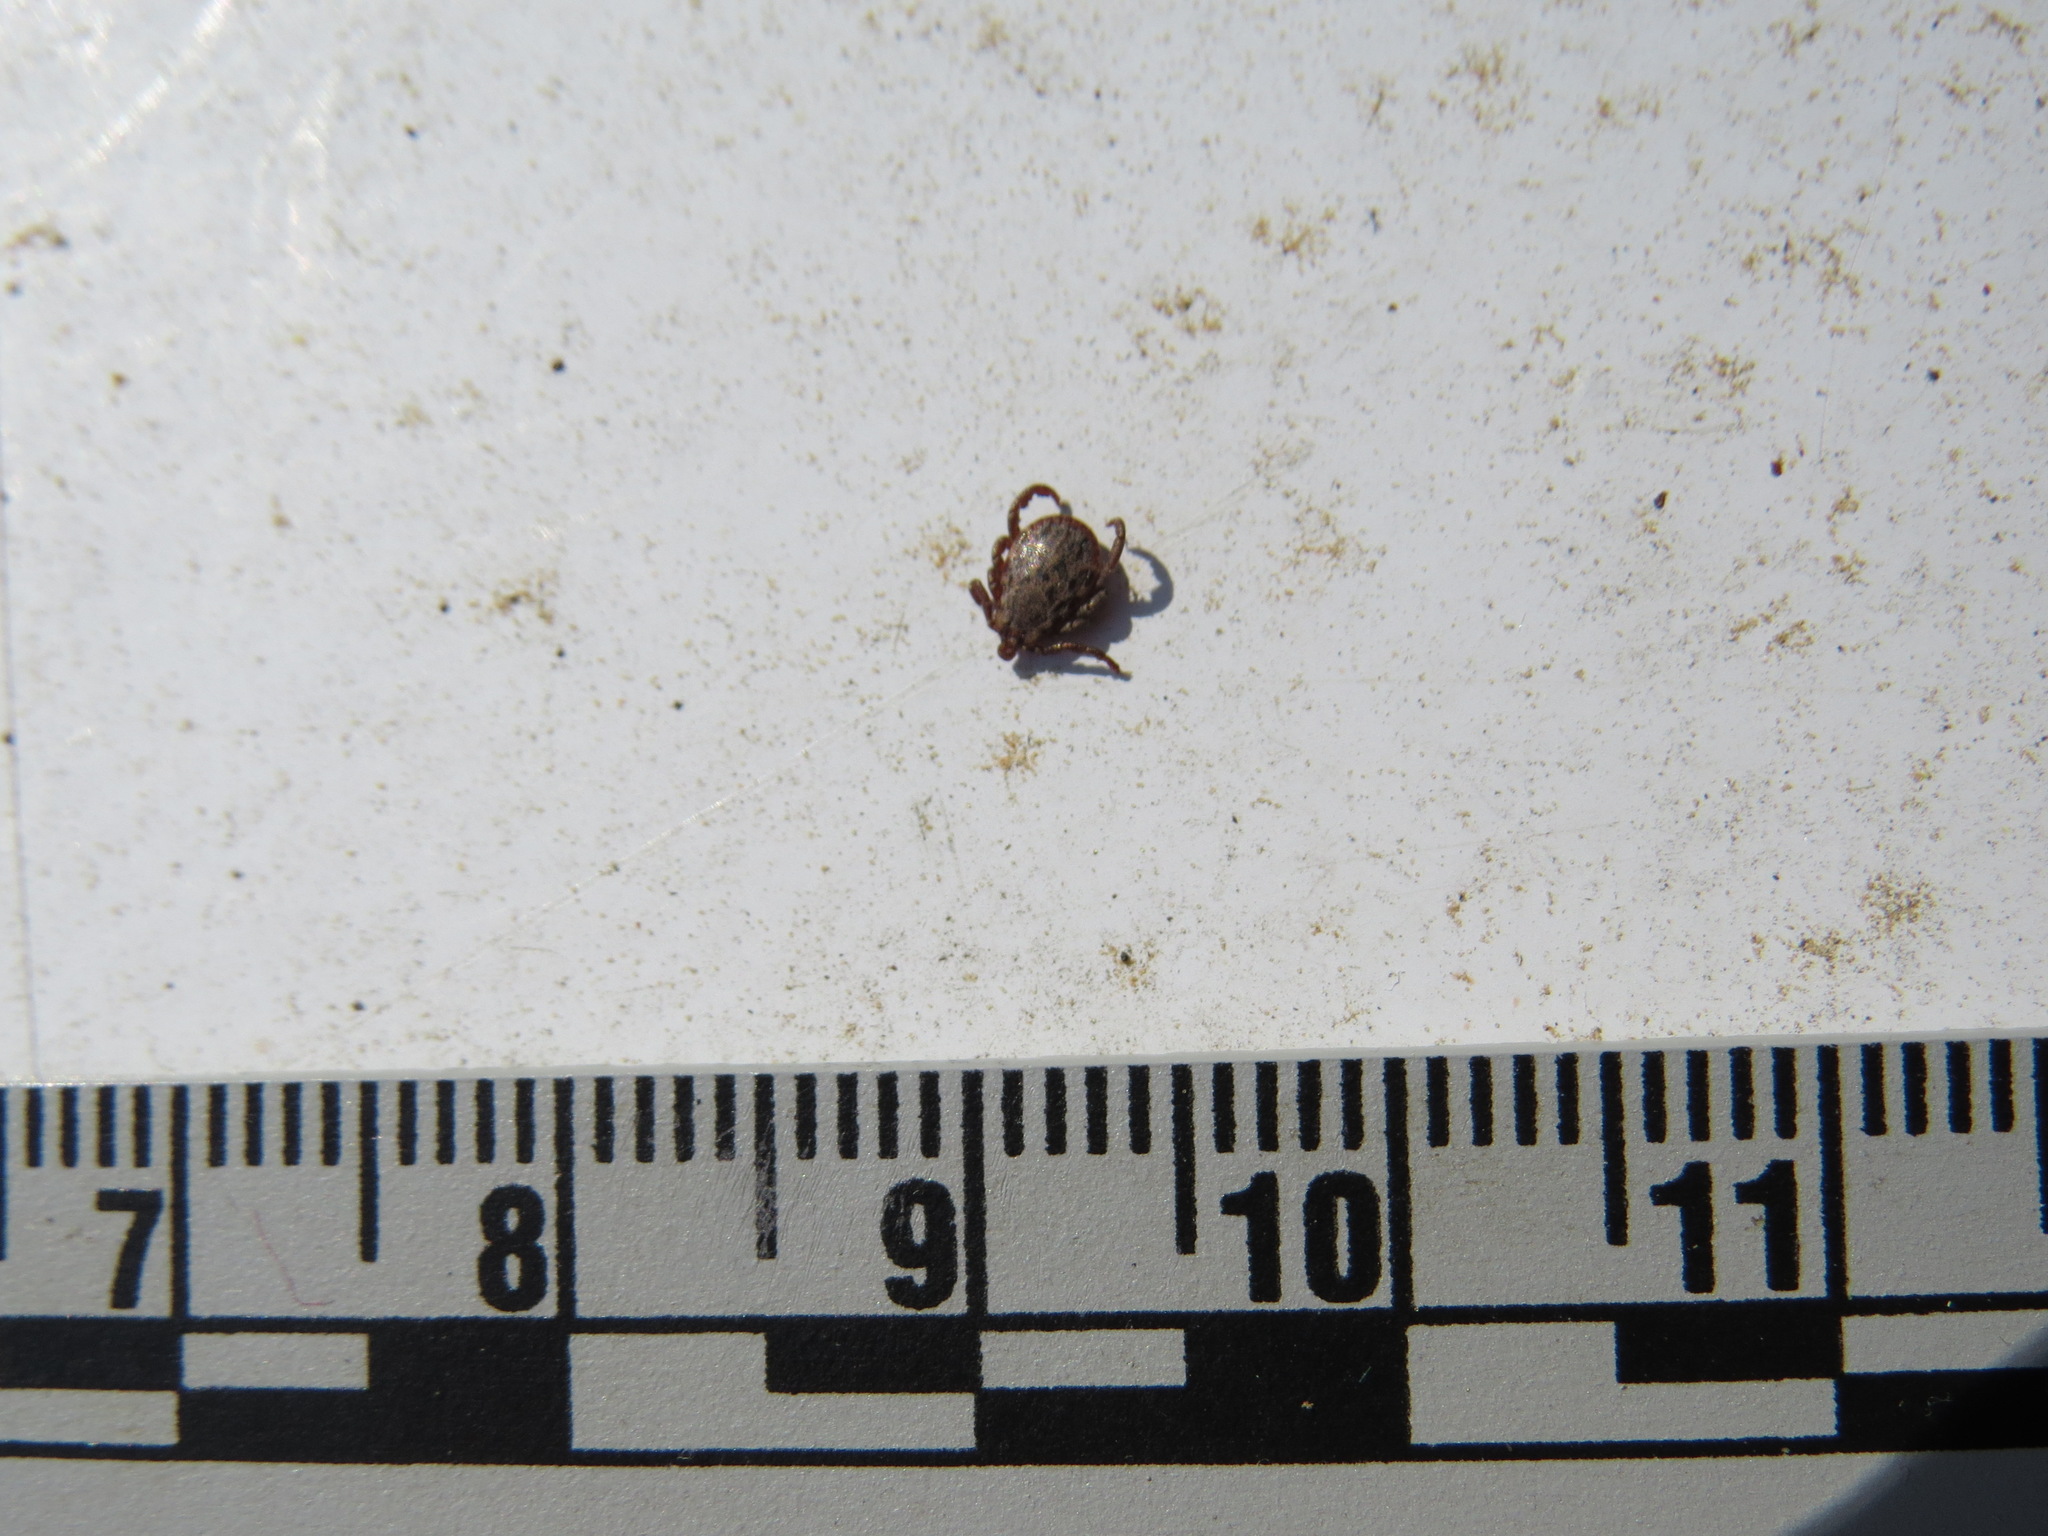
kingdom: Animalia
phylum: Arthropoda
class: Arachnida
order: Ixodida
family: Ixodidae
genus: Dermacentor
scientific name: Dermacentor occidentalis
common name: Net tick
